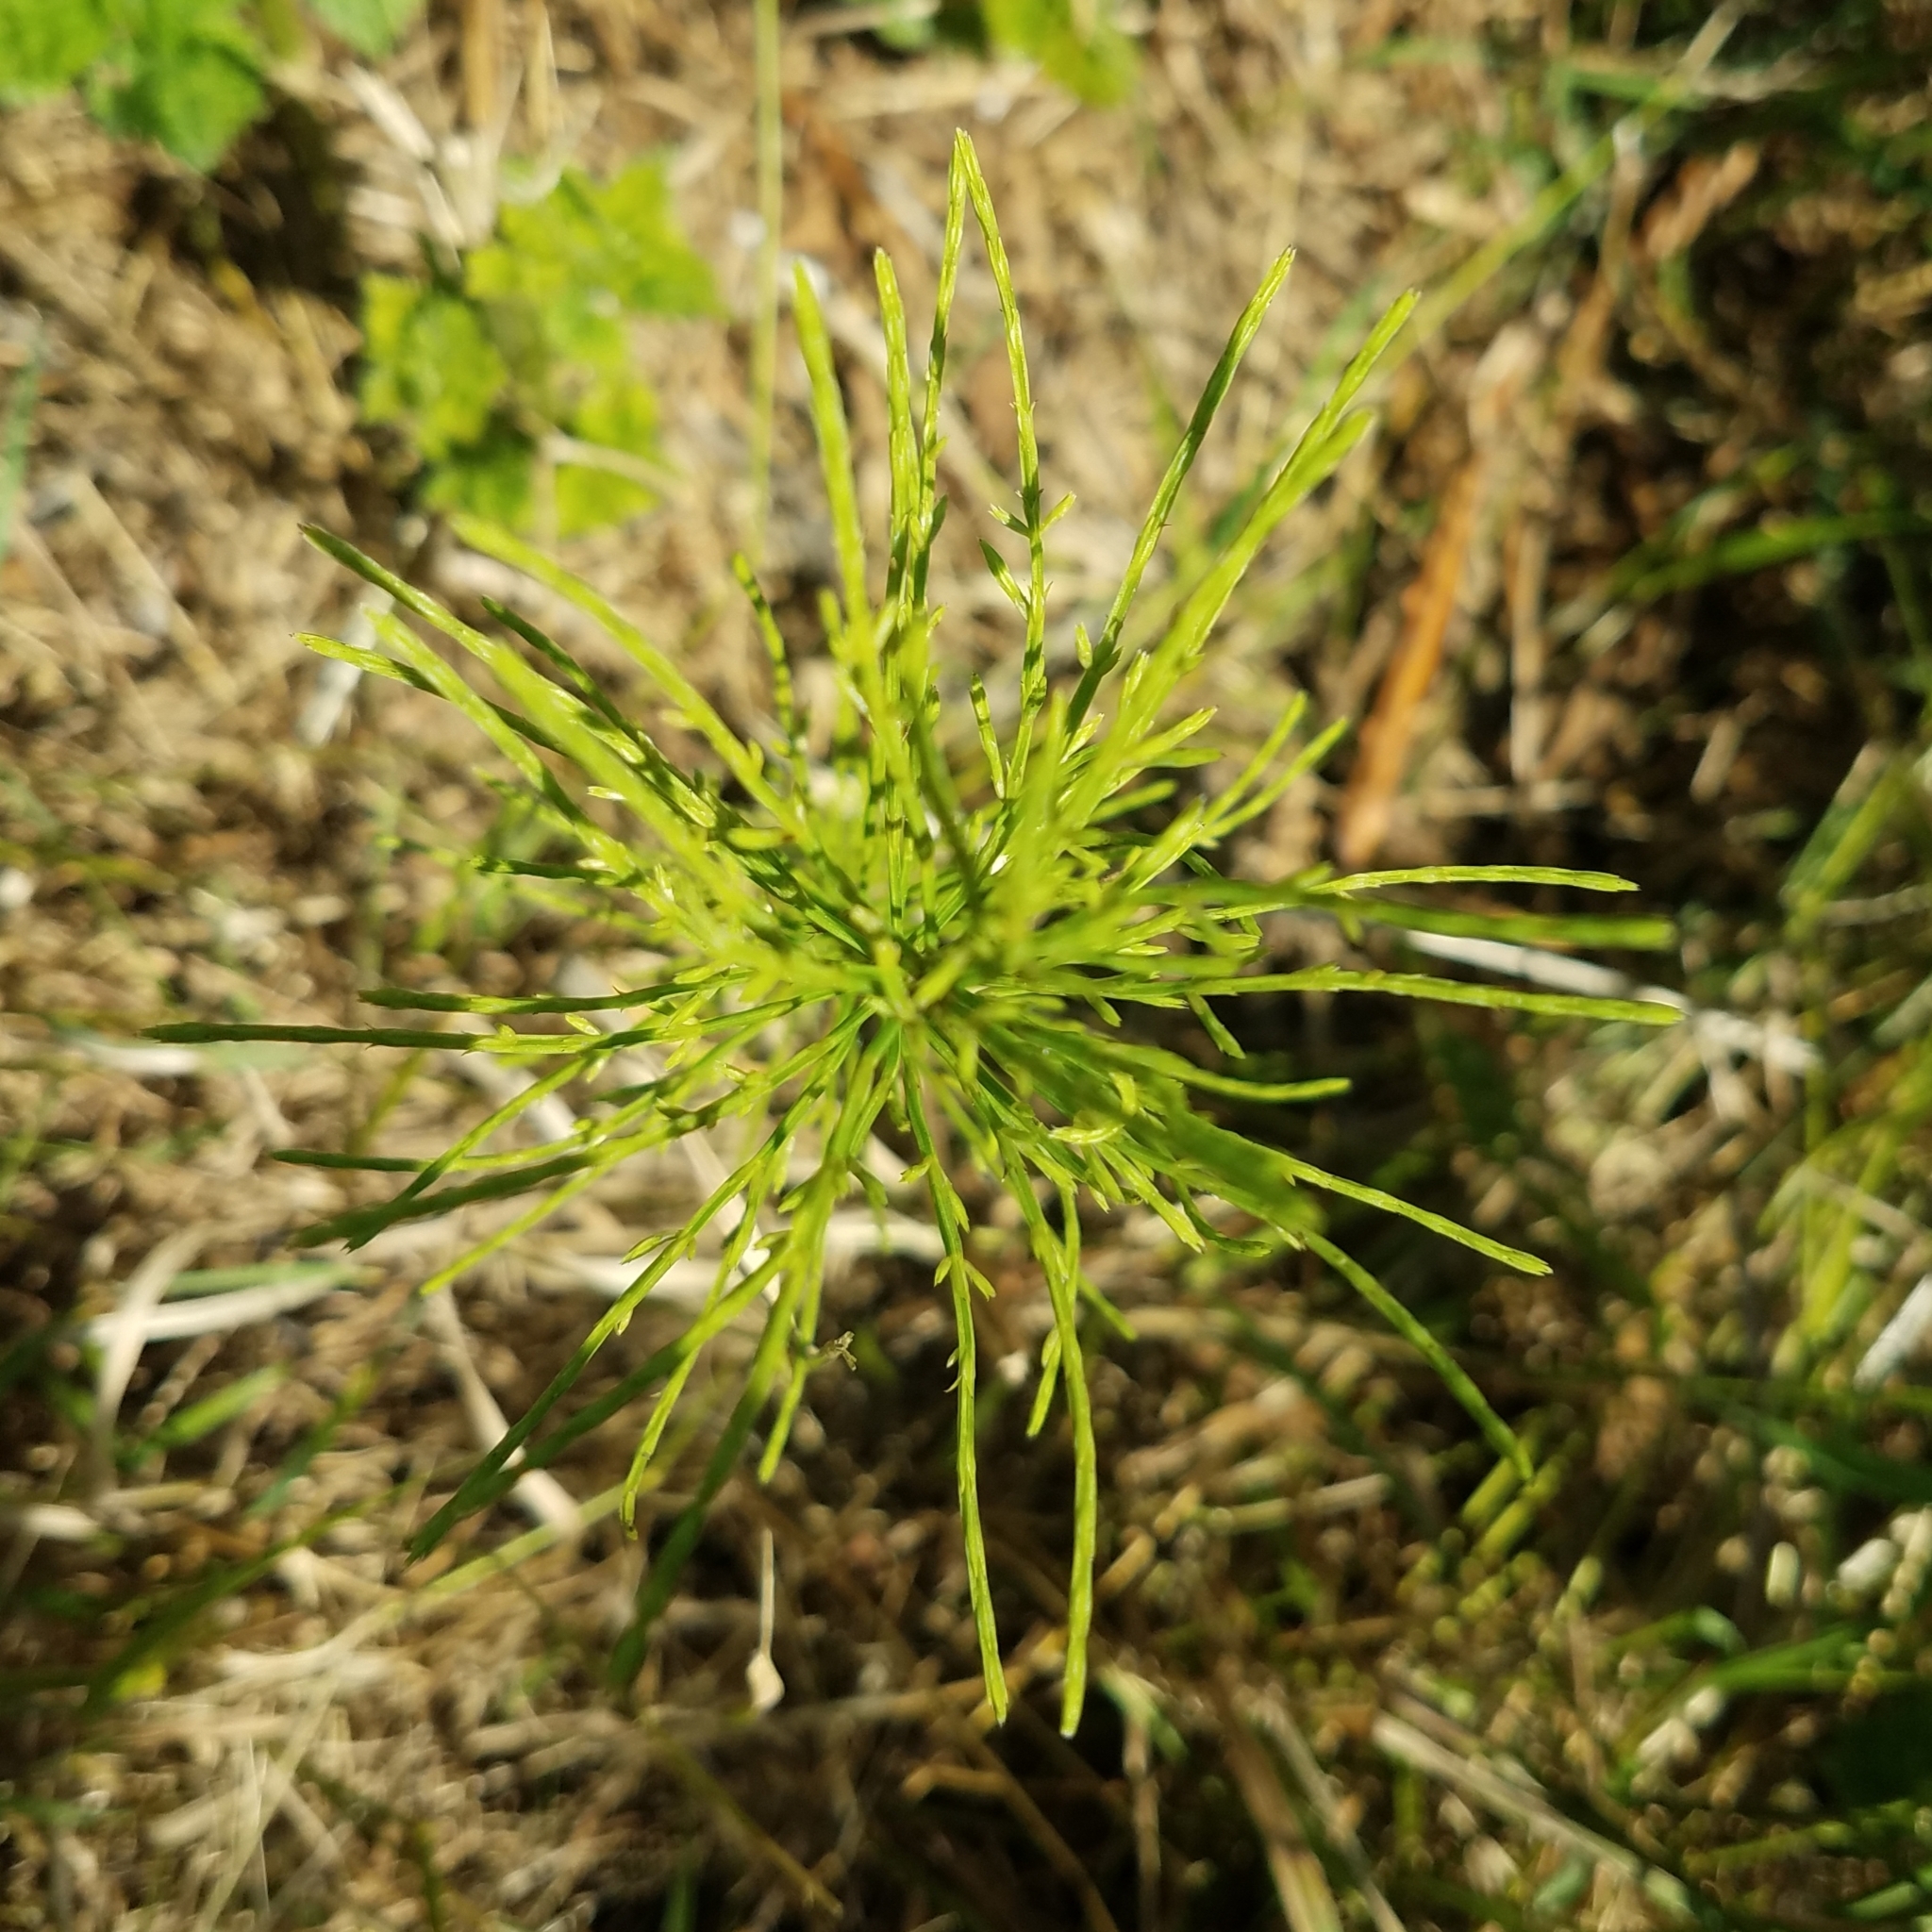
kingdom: Plantae
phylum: Tracheophyta
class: Polypodiopsida
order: Equisetales
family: Equisetaceae
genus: Equisetum
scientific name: Equisetum arvense
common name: Field horsetail
